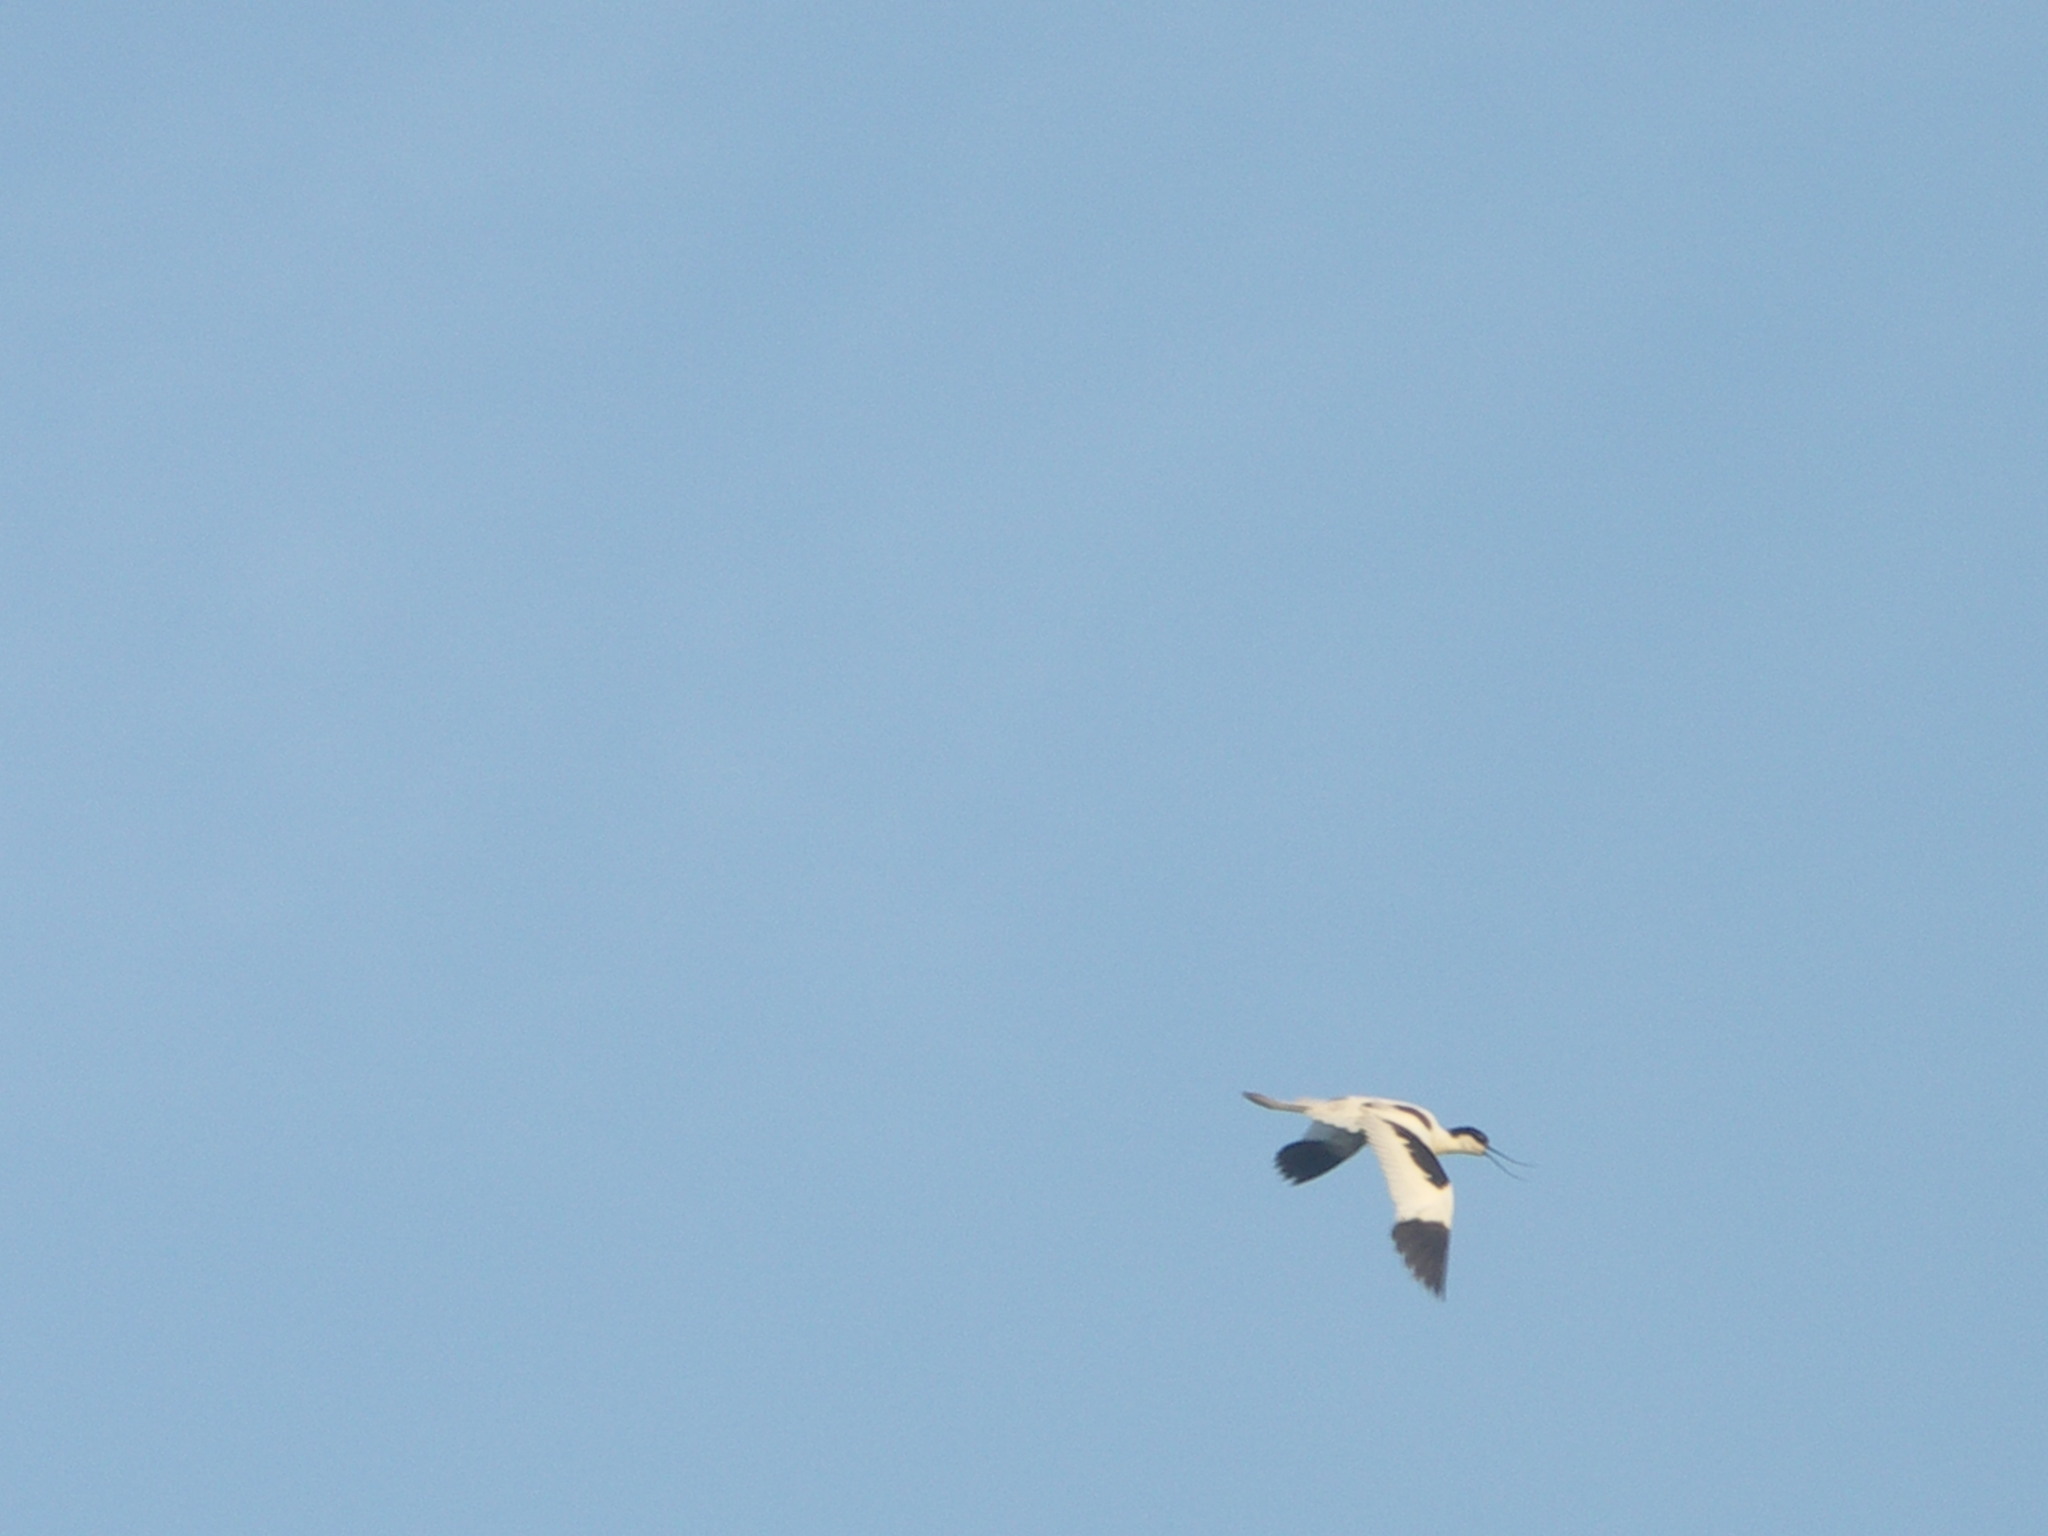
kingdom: Animalia
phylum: Chordata
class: Aves
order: Charadriiformes
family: Recurvirostridae
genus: Recurvirostra
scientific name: Recurvirostra avosetta
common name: Pied avocet
